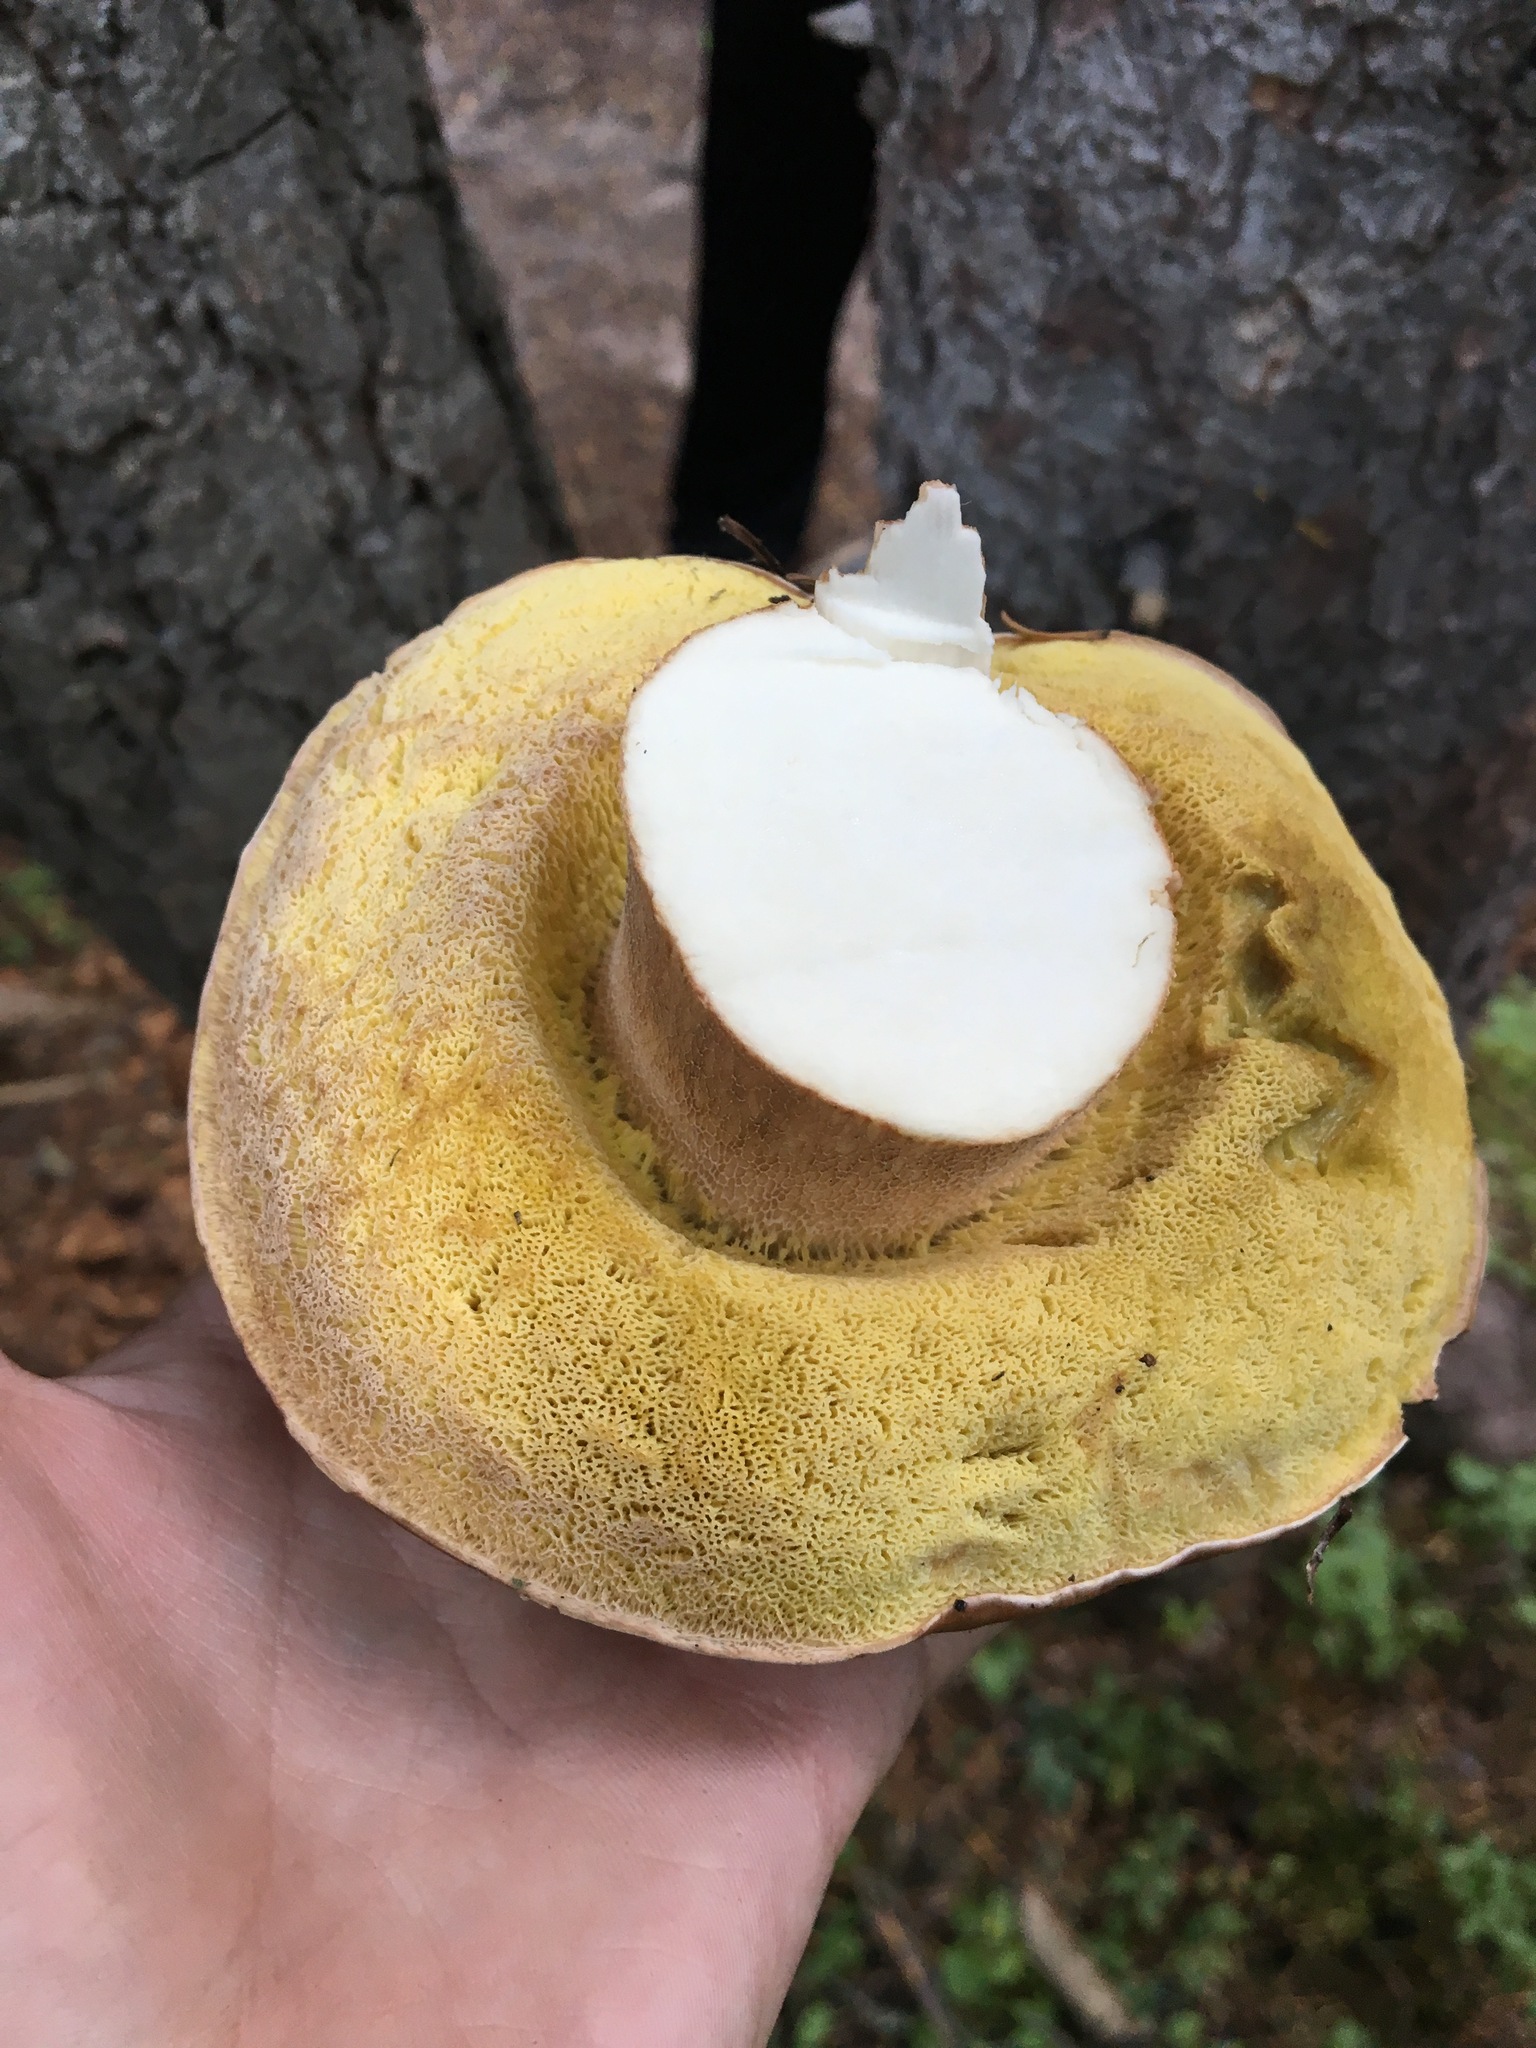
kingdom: Fungi
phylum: Basidiomycota
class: Agaricomycetes
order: Boletales
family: Boletaceae
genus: Boletus
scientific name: Boletus rubriceps
